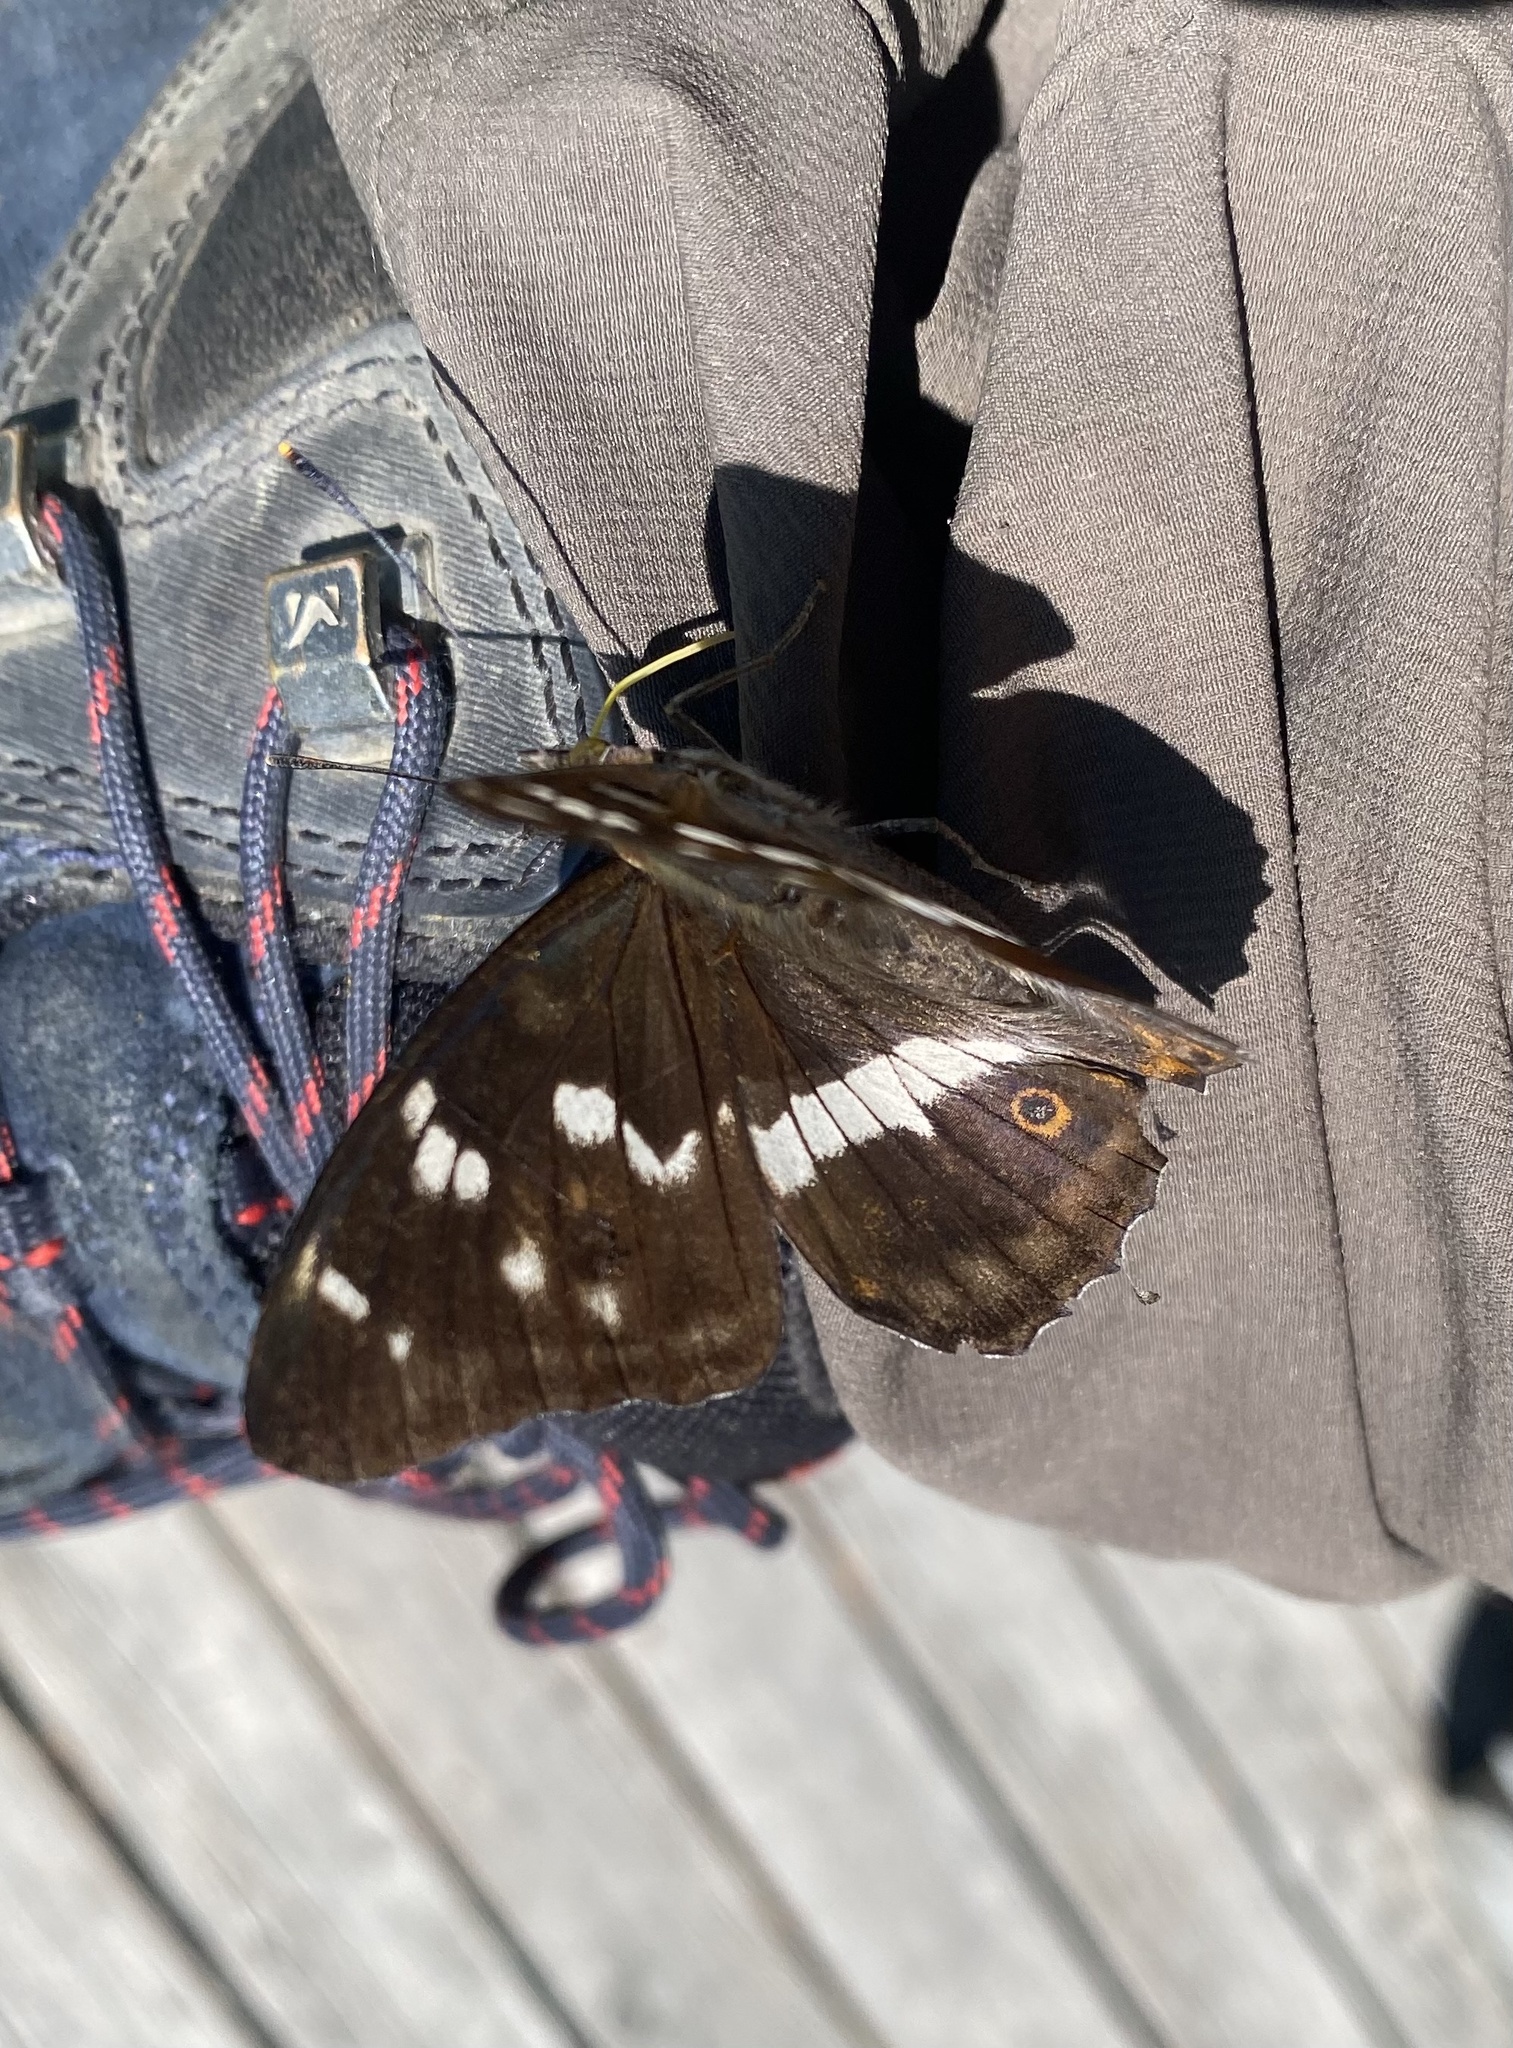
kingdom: Animalia
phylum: Arthropoda
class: Insecta
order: Lepidoptera
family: Nymphalidae
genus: Apatura
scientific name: Apatura iris
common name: Purple emperor
